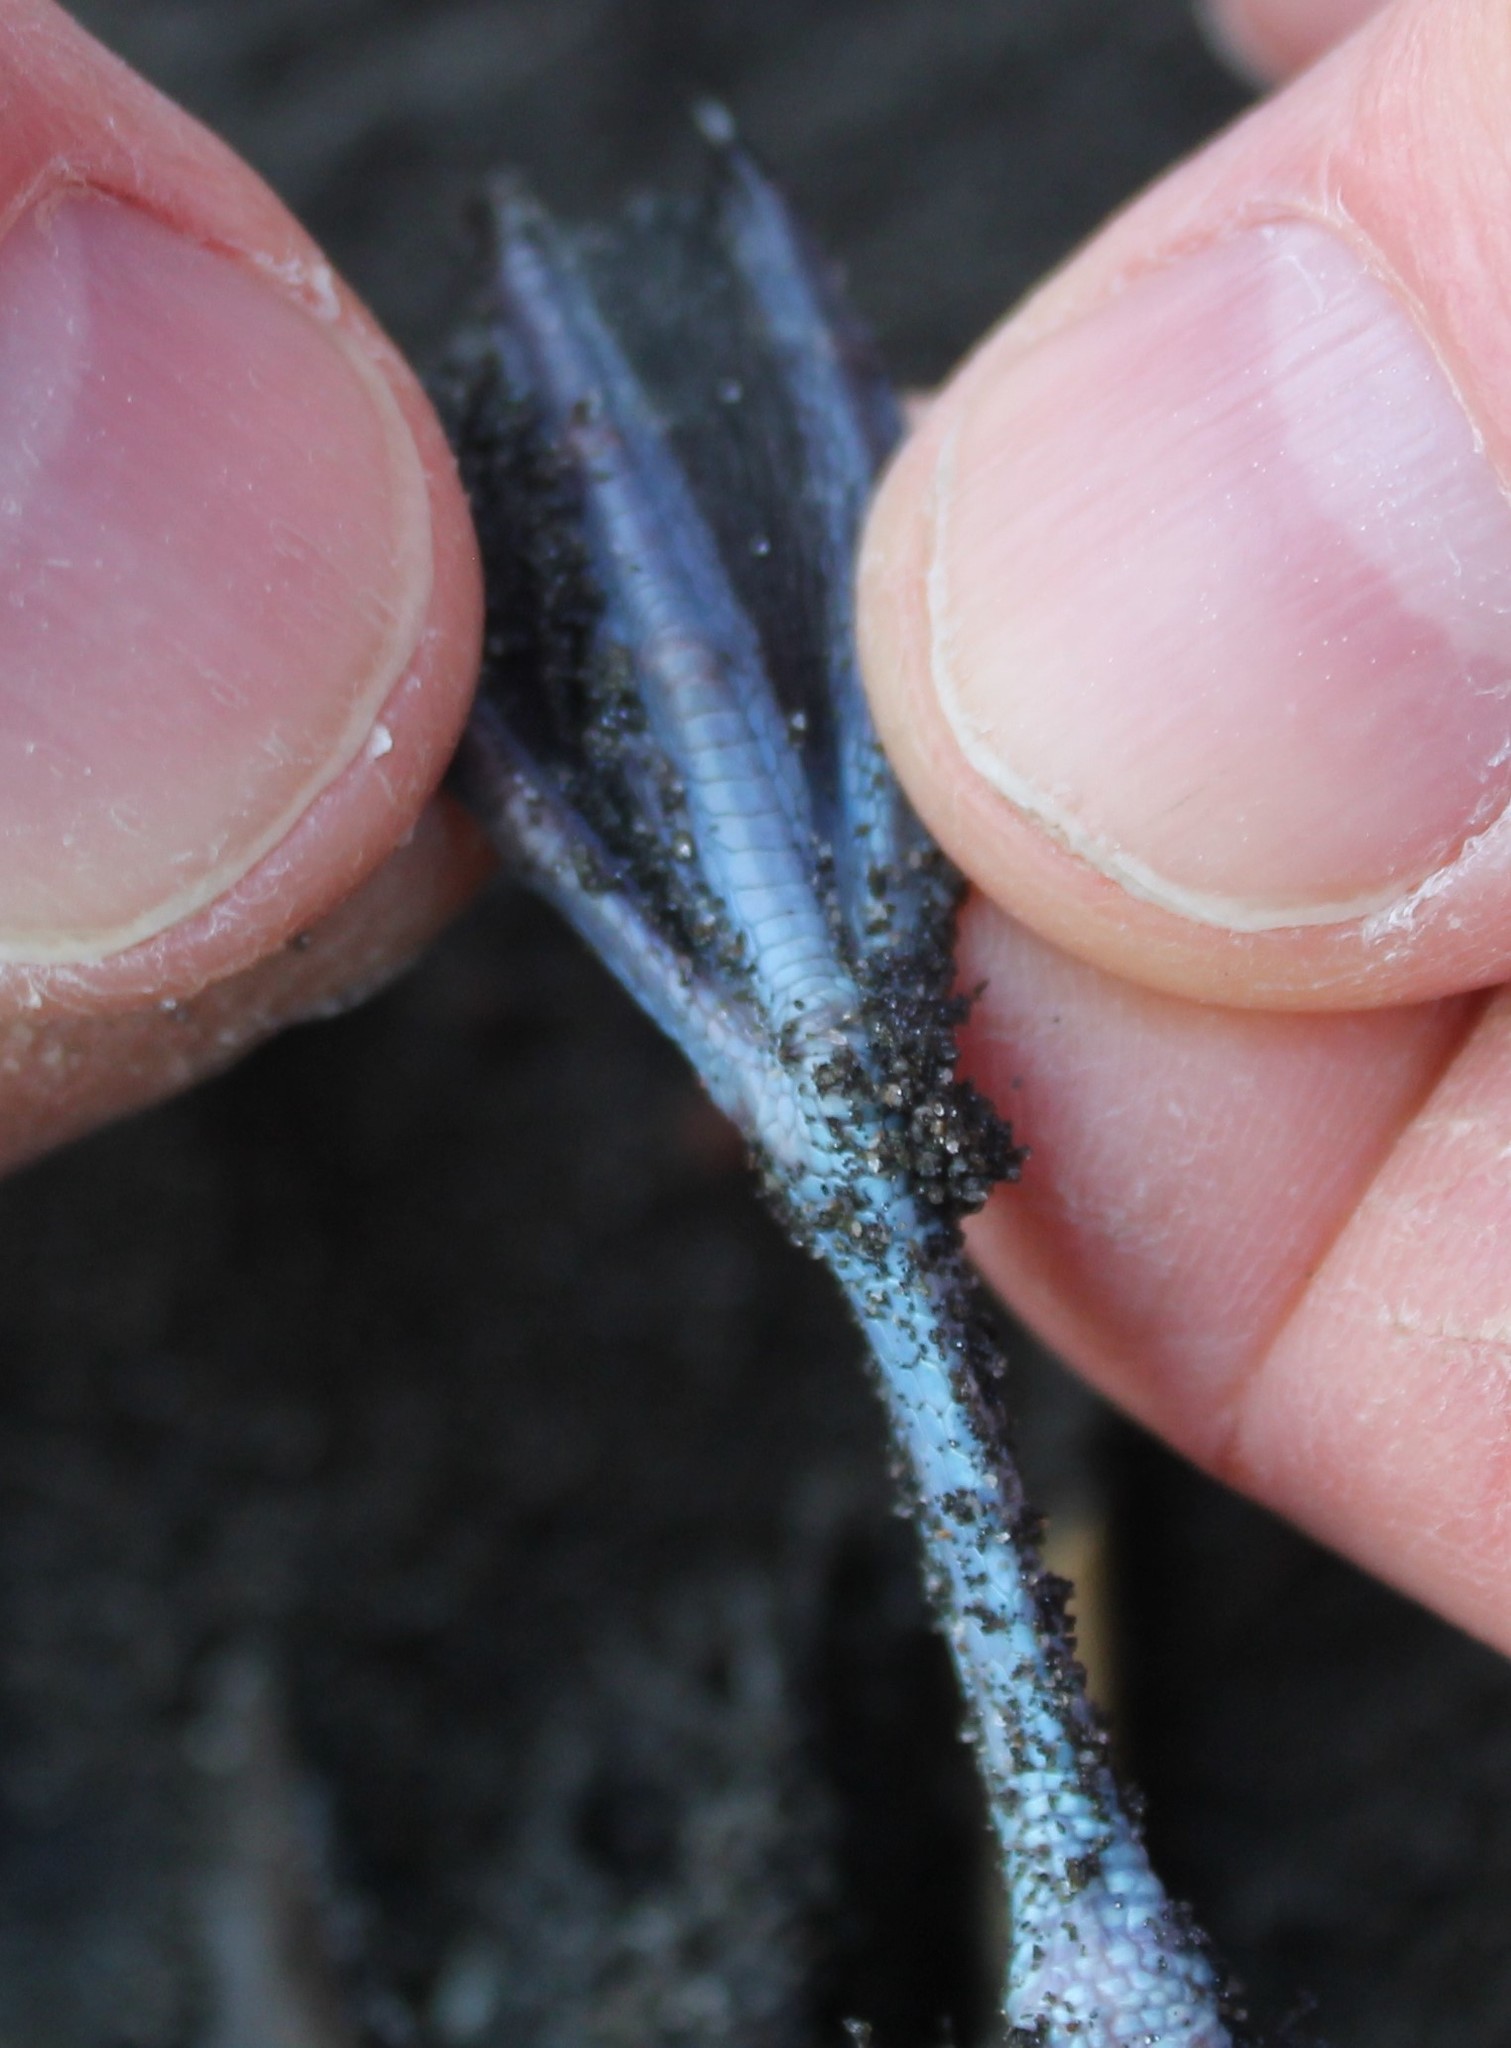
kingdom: Animalia
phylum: Chordata
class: Aves
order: Procellariiformes
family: Pelecanoididae
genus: Pelecanoides
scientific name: Pelecanoides urinatrix
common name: Common diving-petrel
